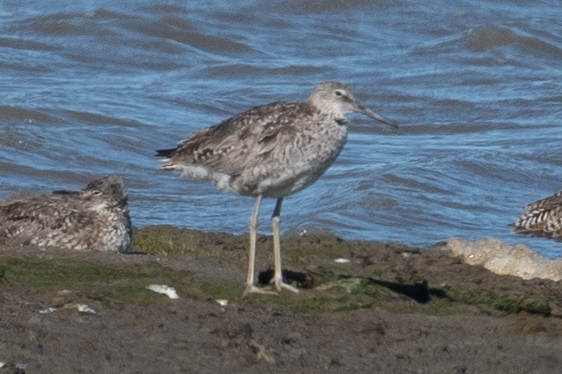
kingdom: Animalia
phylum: Chordata
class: Aves
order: Charadriiformes
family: Scolopacidae
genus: Tringa
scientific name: Tringa semipalmata
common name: Willet
